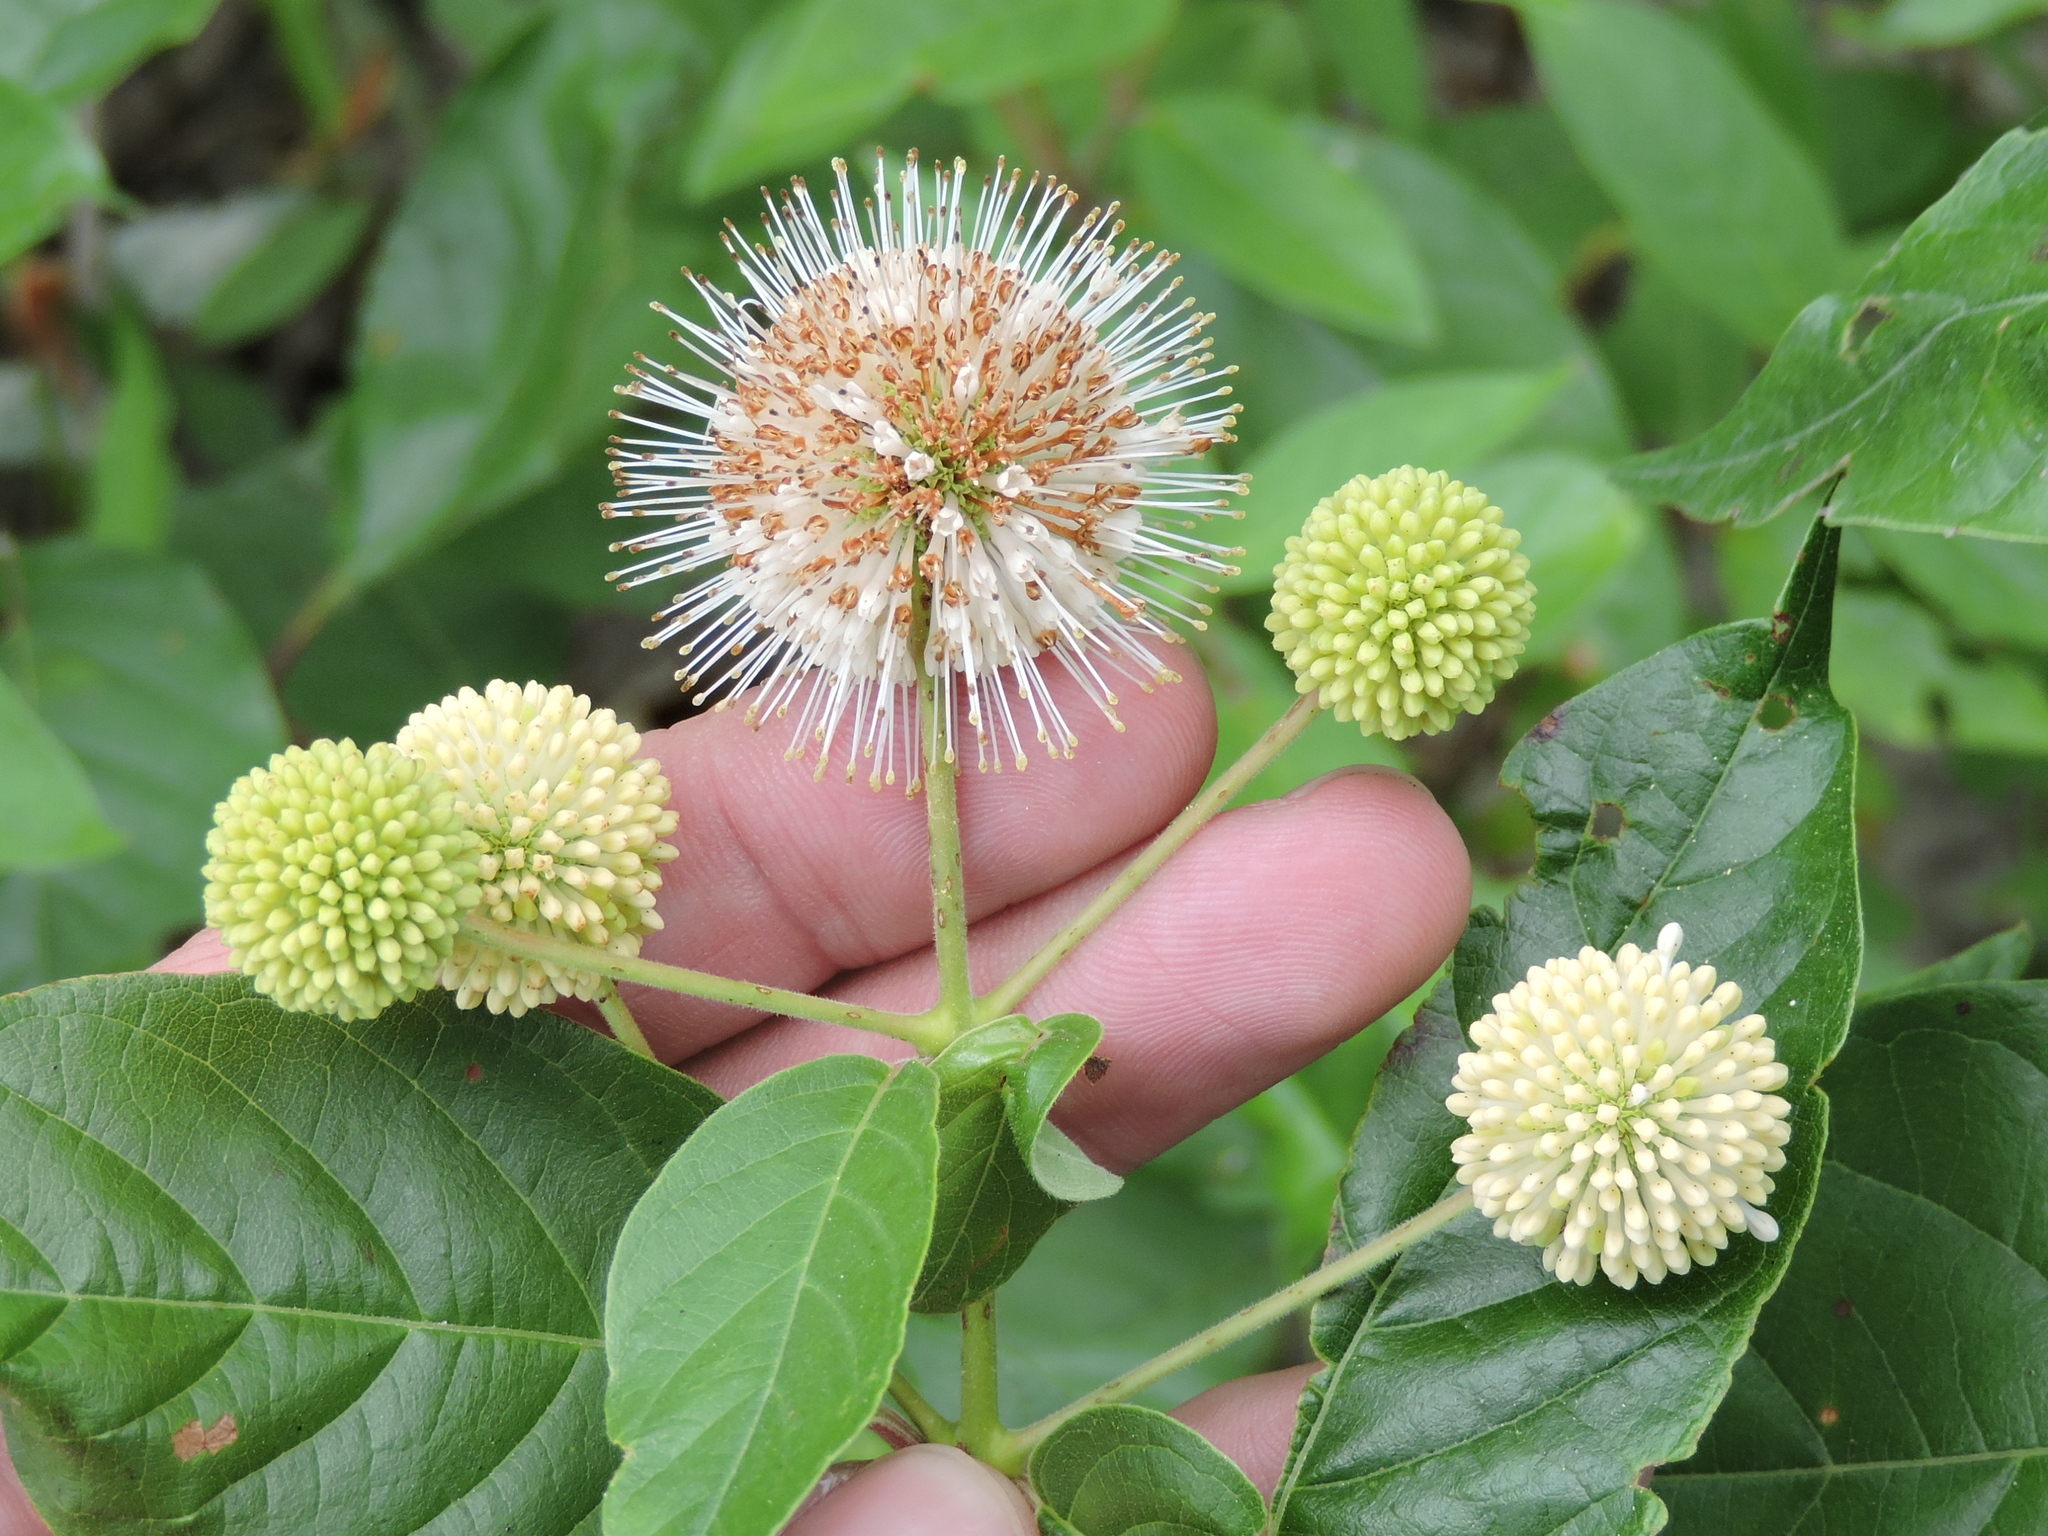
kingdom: Plantae
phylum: Tracheophyta
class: Magnoliopsida
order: Gentianales
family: Rubiaceae
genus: Cephalanthus
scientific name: Cephalanthus occidentalis
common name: Button-willow
